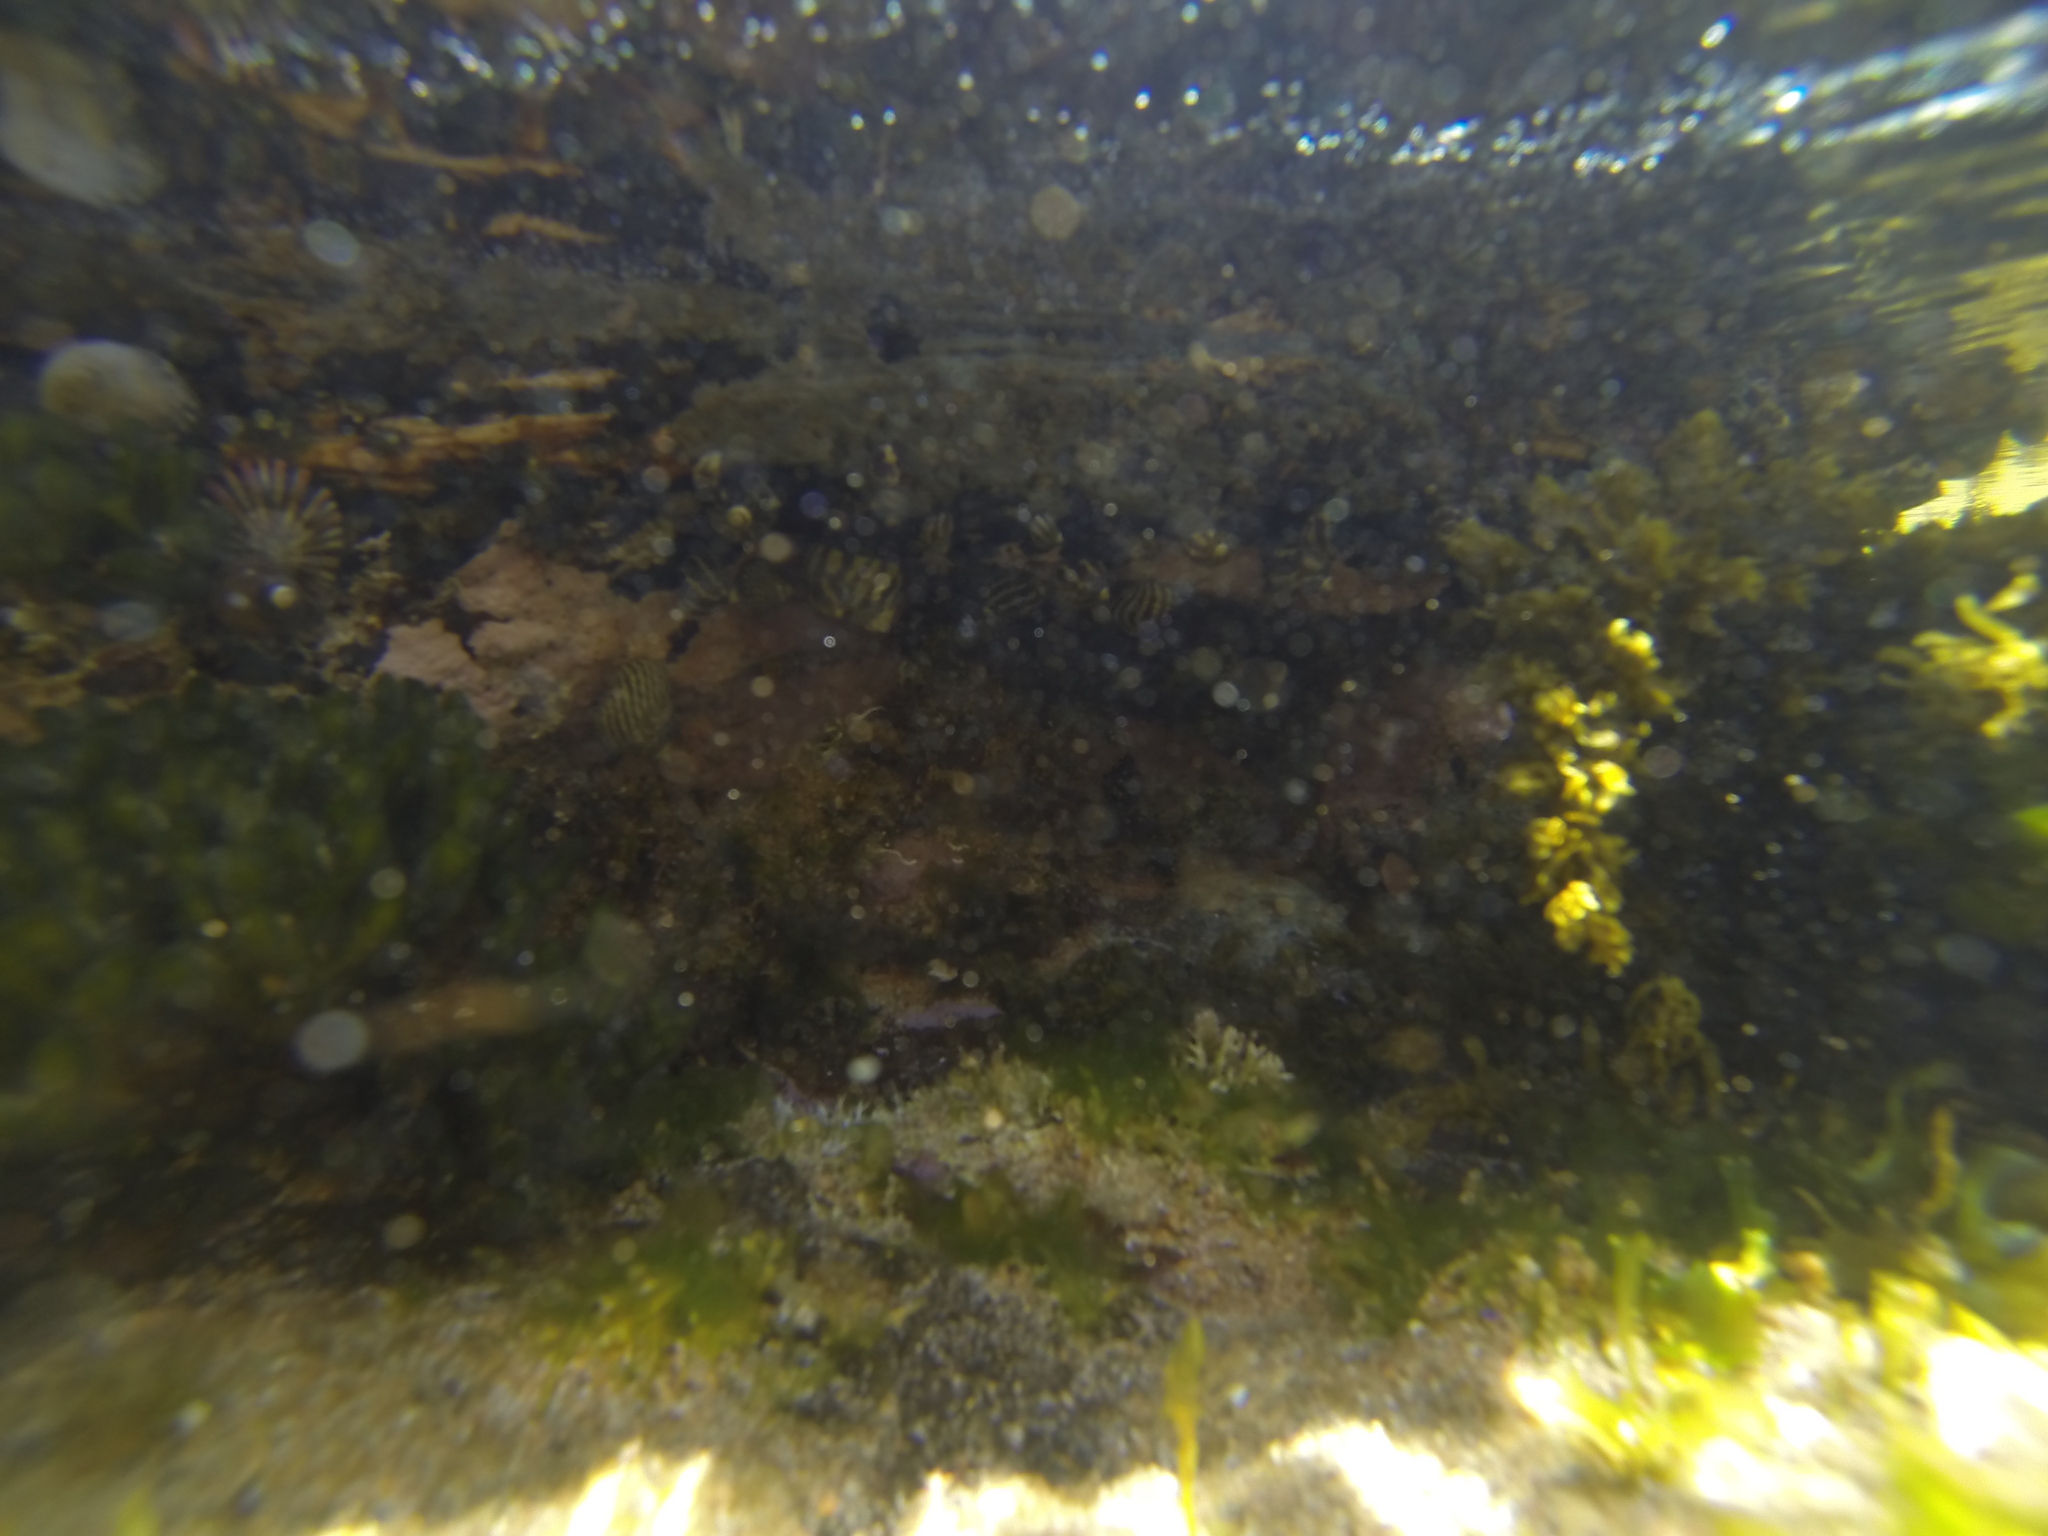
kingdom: Animalia
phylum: Mollusca
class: Gastropoda
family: Nacellidae
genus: Cellana
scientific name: Cellana tramoserica
